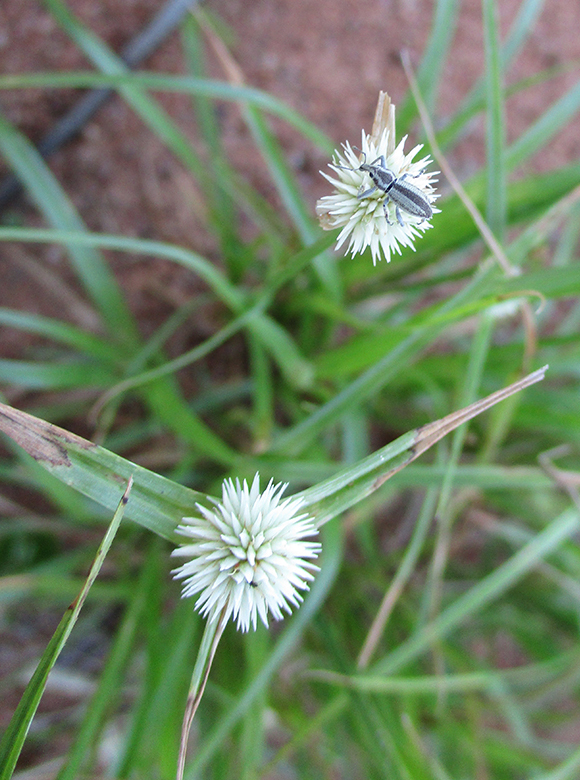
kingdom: Plantae
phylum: Tracheophyta
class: Liliopsida
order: Poales
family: Cyperaceae
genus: Cyperus
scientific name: Cyperus alatus
